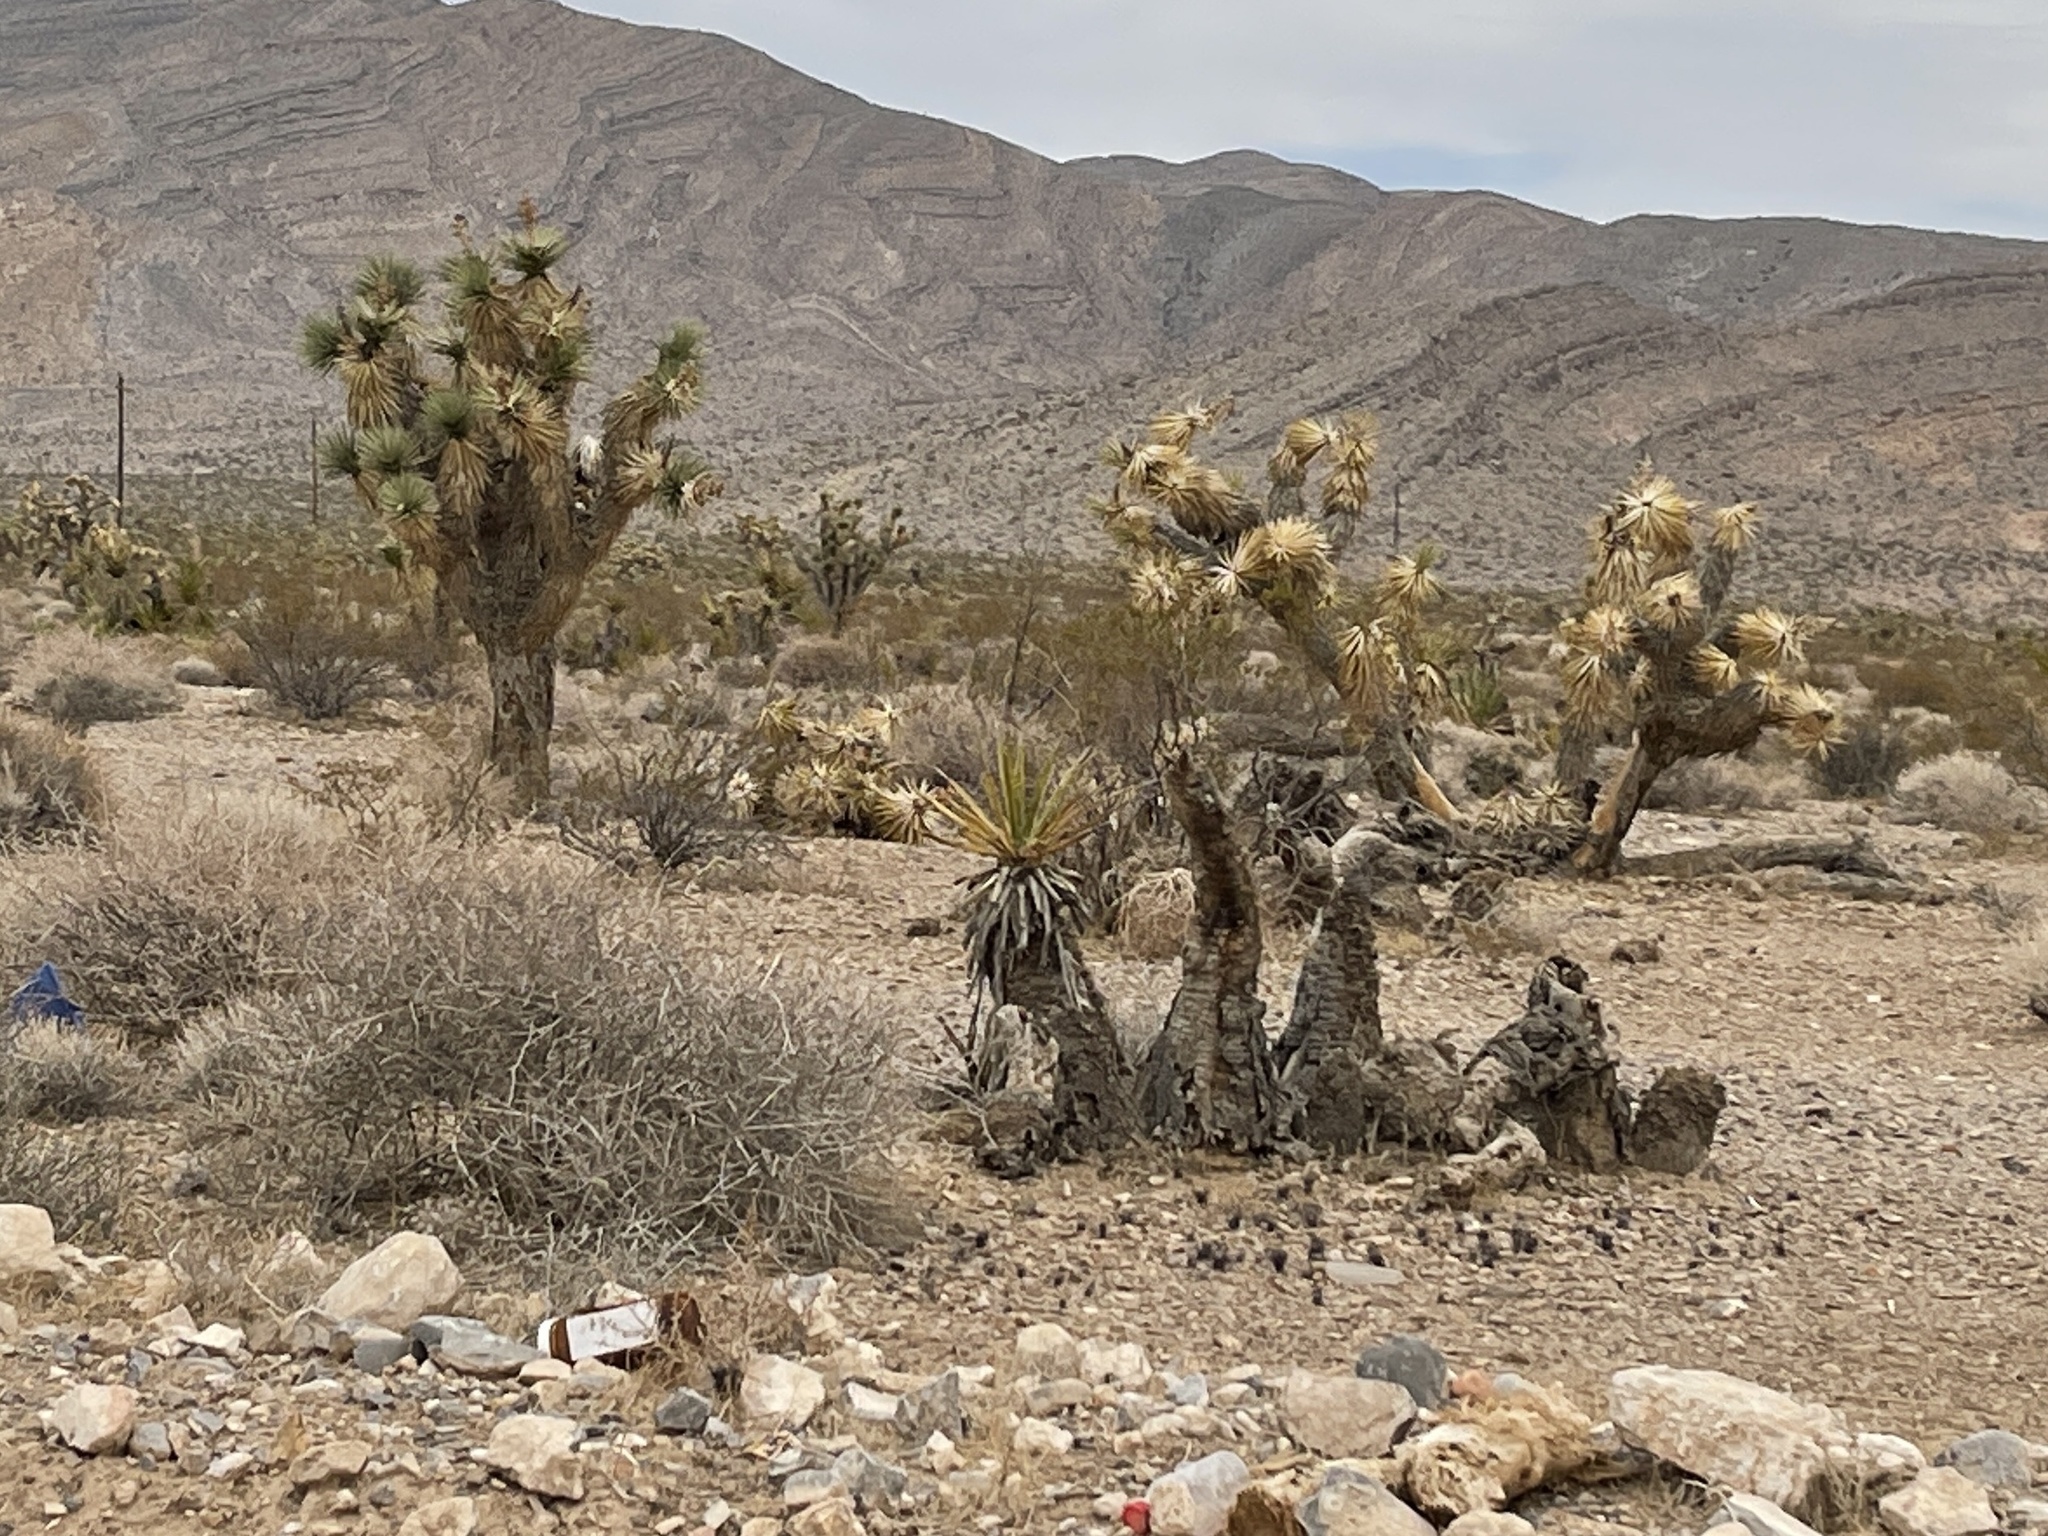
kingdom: Plantae
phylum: Tracheophyta
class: Liliopsida
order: Asparagales
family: Asparagaceae
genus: Yucca
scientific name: Yucca brevifolia
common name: Joshua tree
